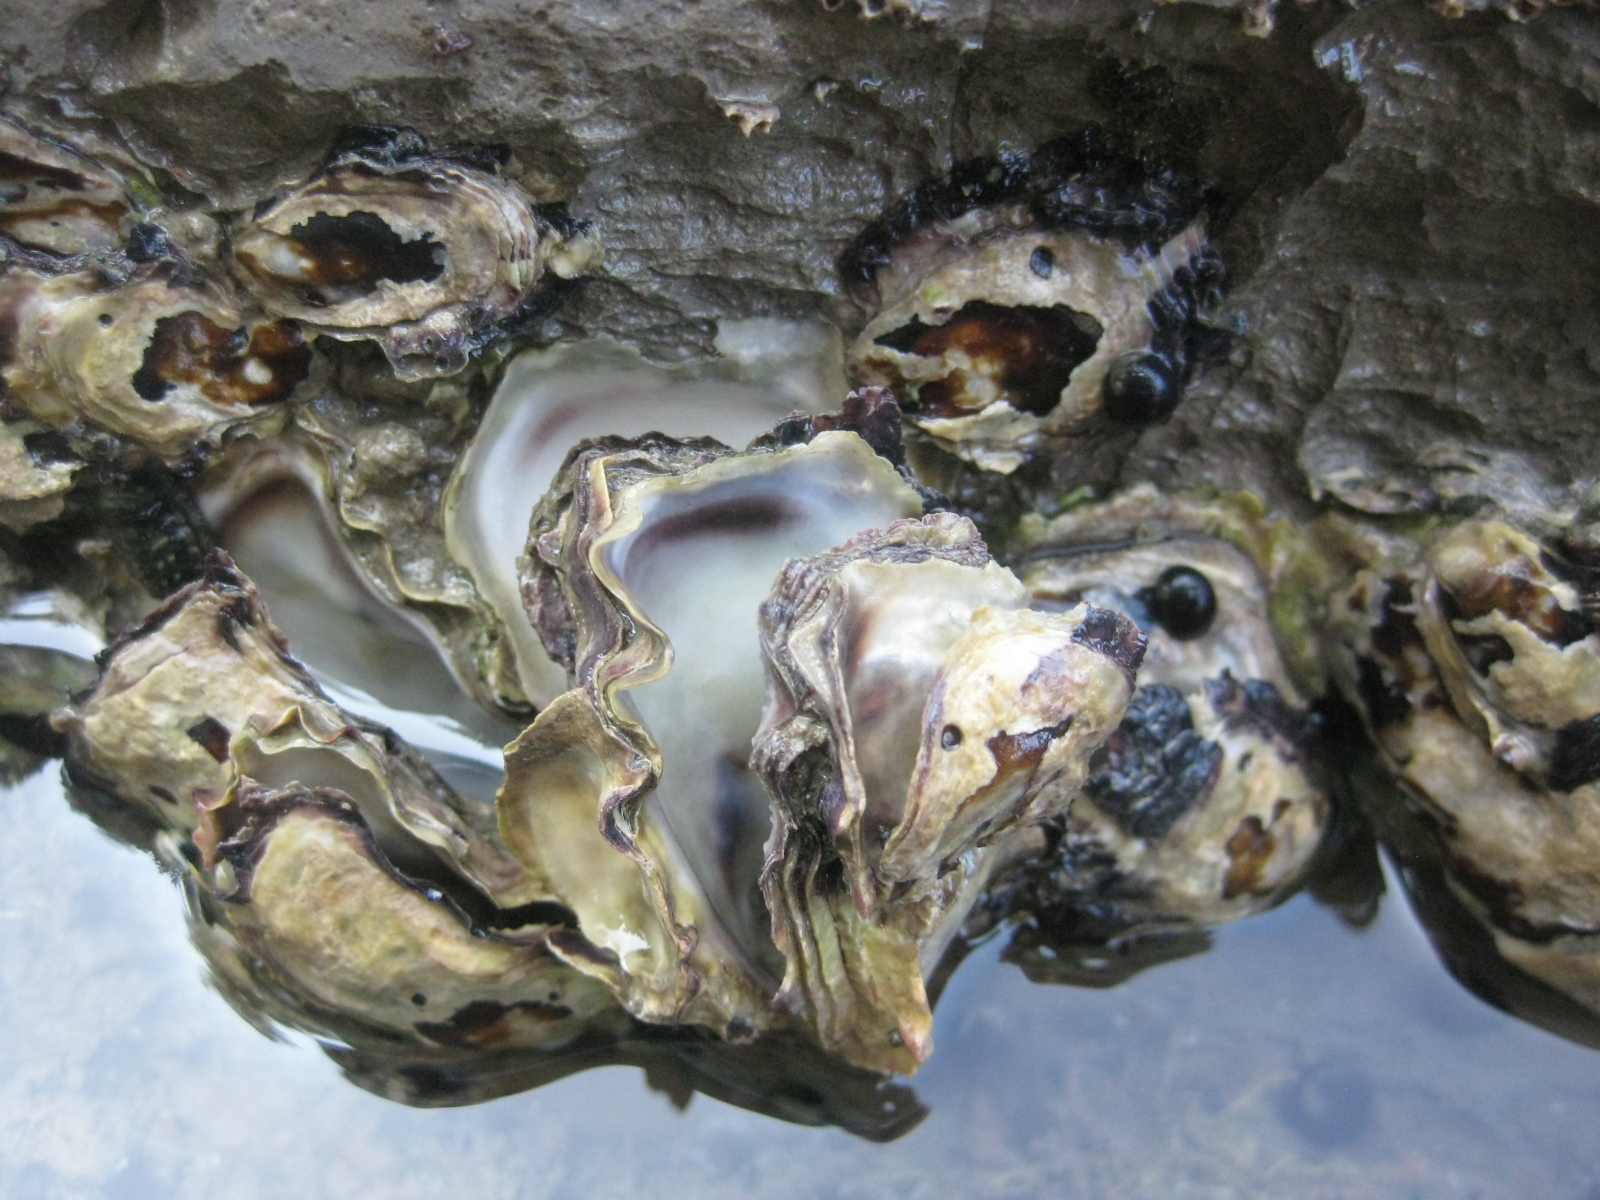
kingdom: Animalia
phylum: Mollusca
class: Bivalvia
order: Ostreida
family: Ostreidae
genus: Saccostrea
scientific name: Saccostrea glomerata
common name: Sydney cupped oyster
